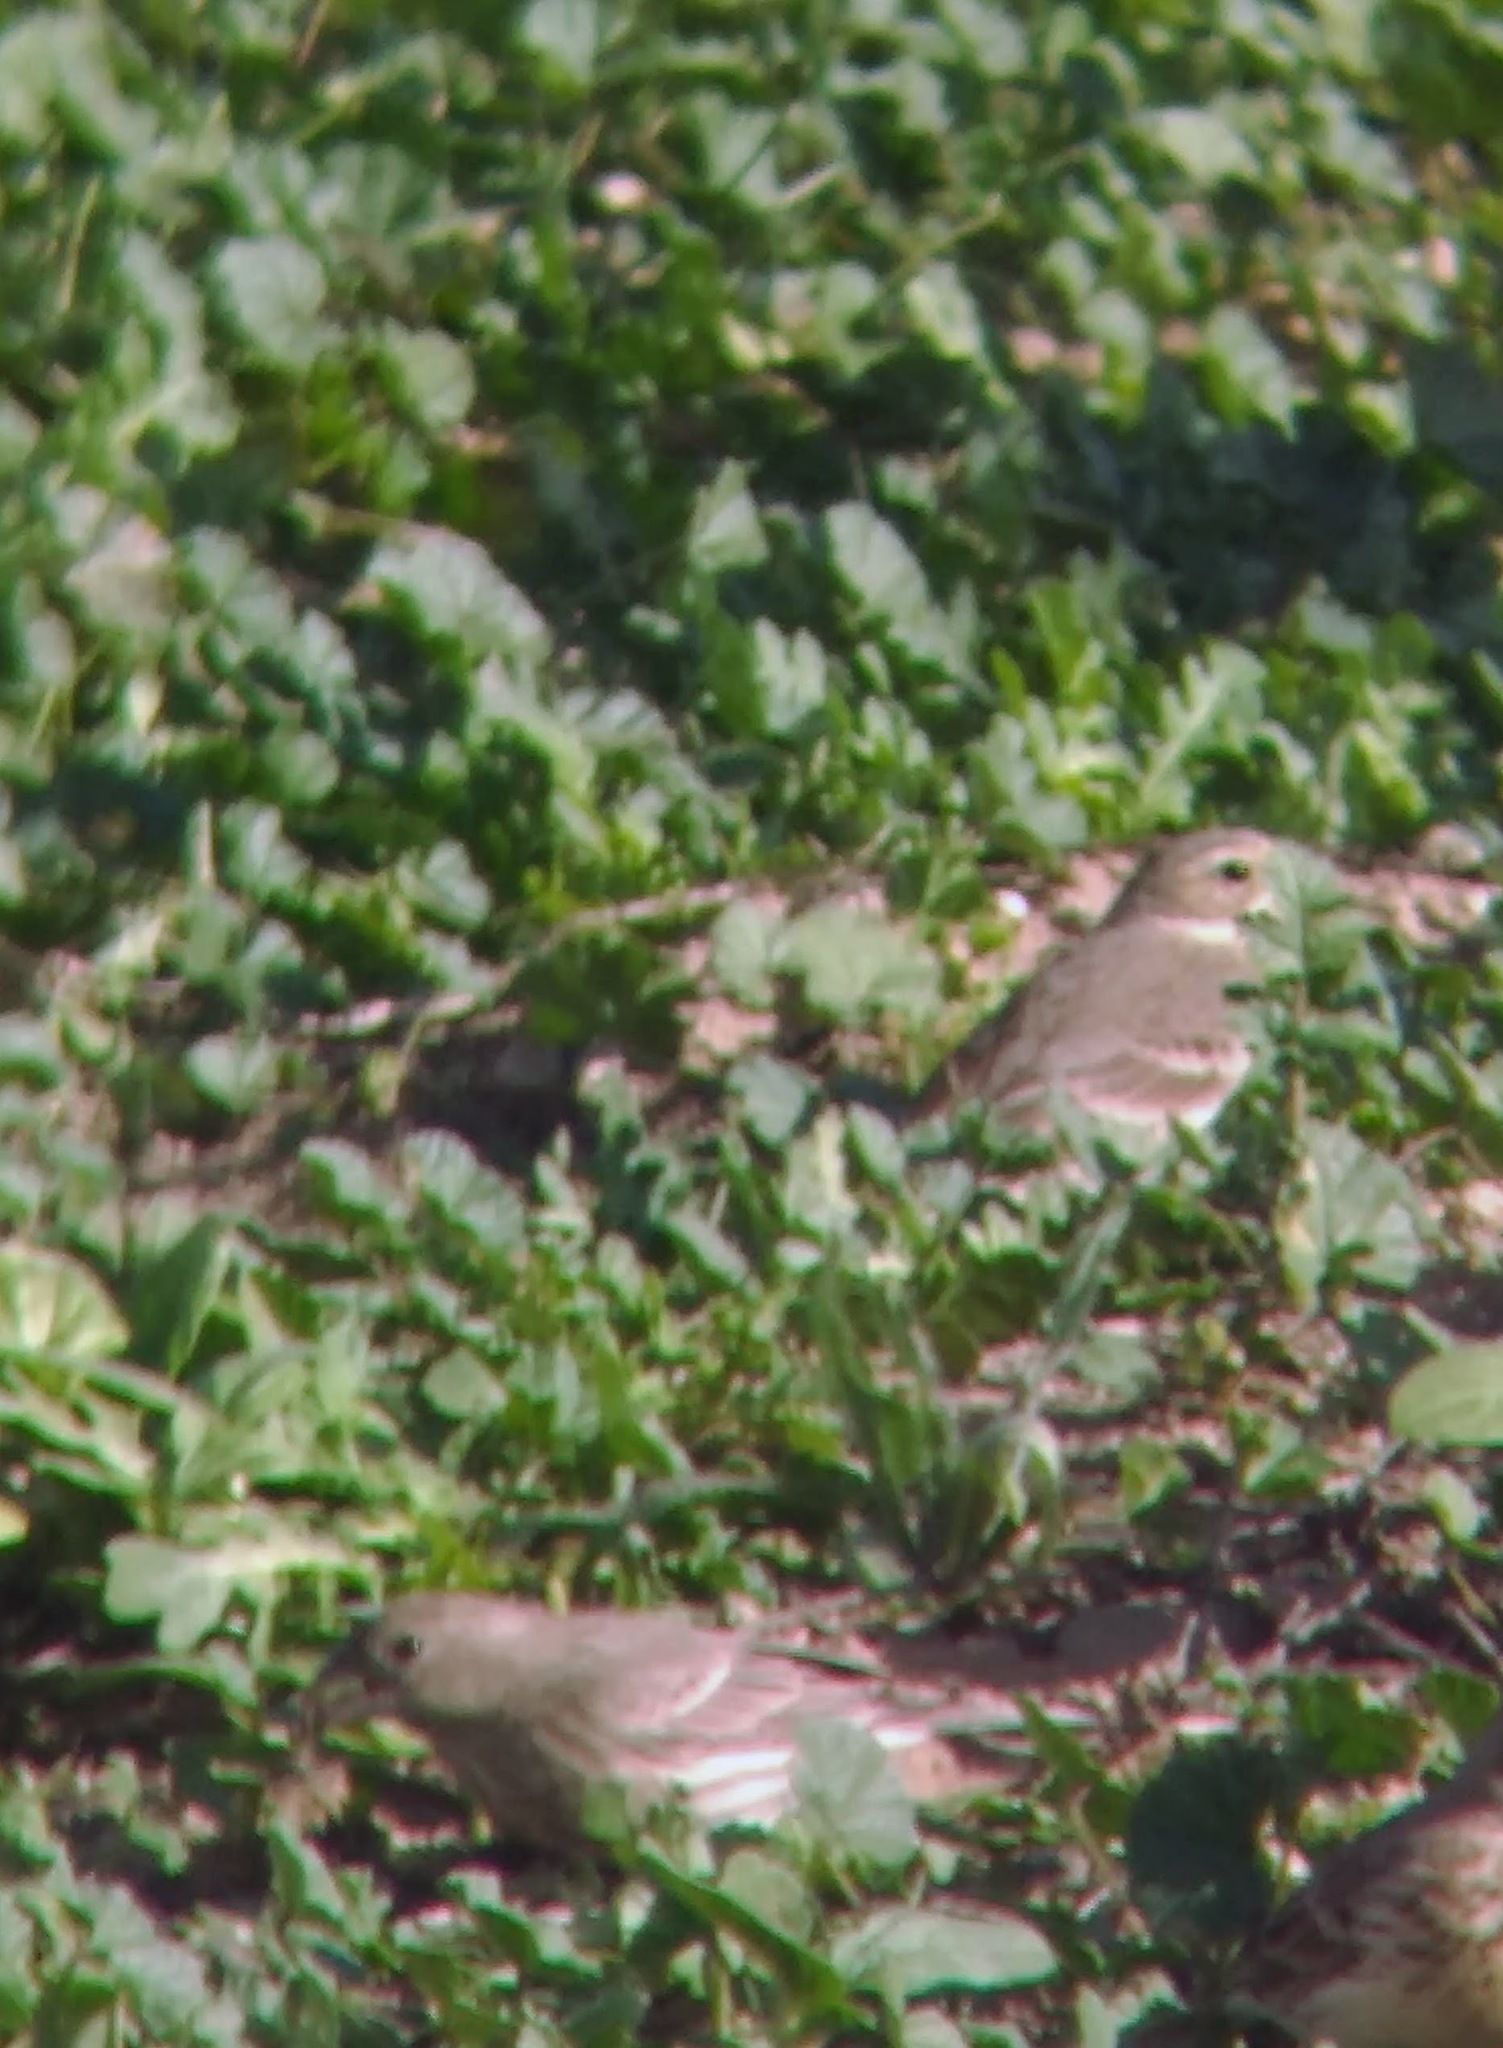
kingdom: Animalia
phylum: Chordata
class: Aves
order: Passeriformes
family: Fringillidae
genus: Haemorhous
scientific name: Haemorhous mexicanus
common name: House finch
